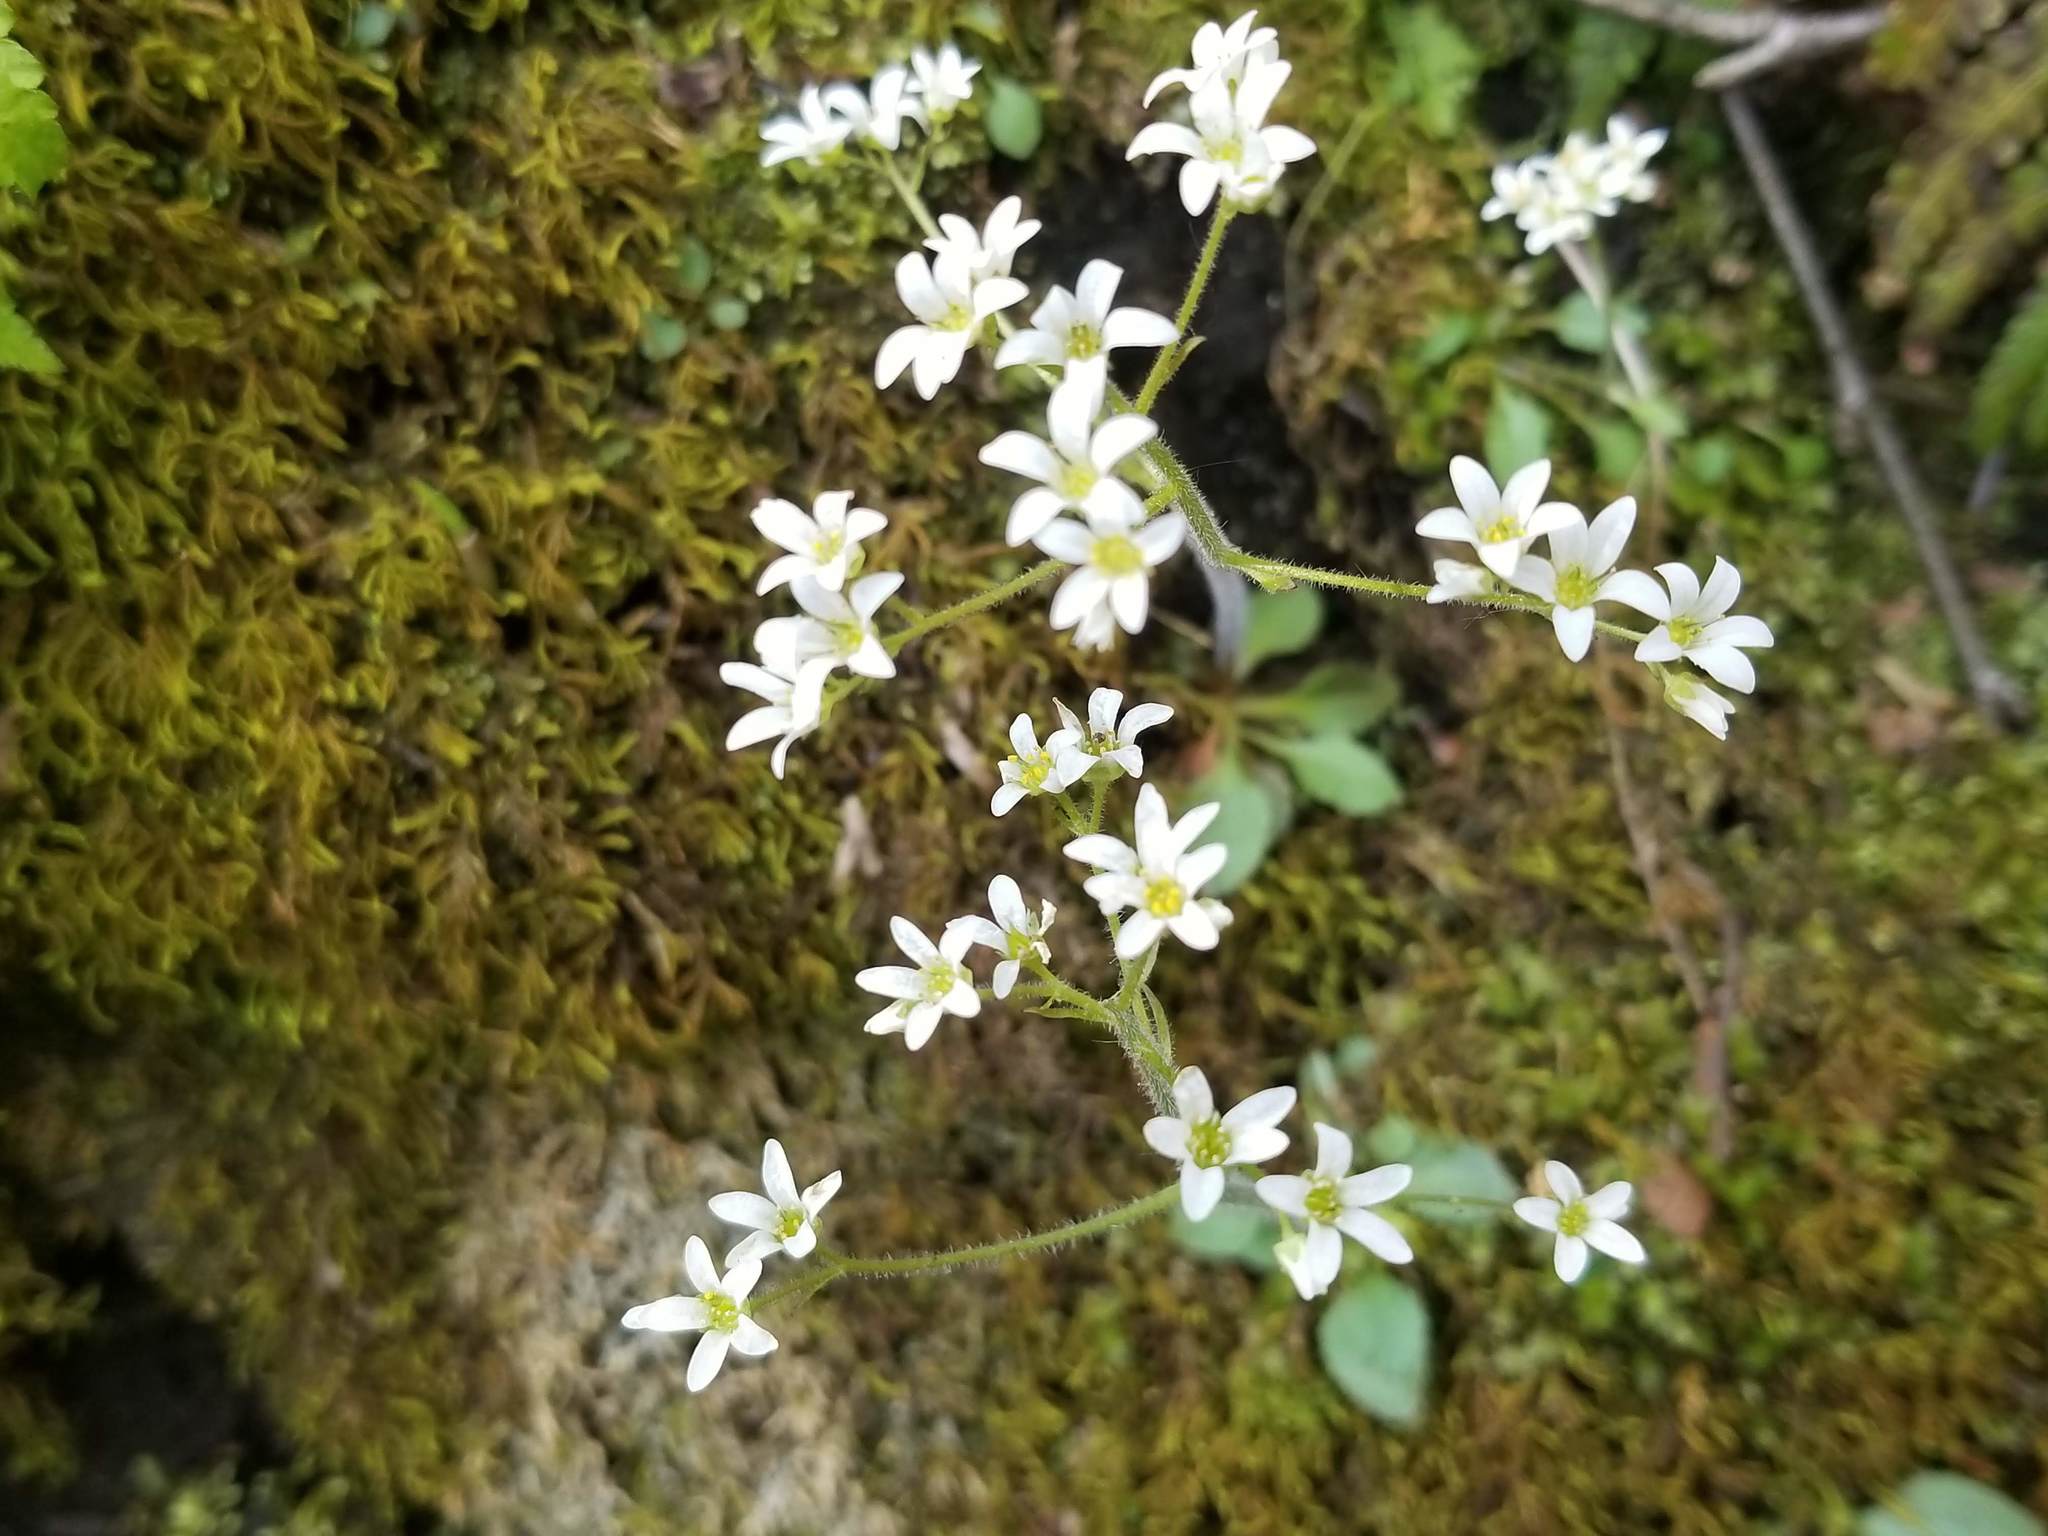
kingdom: Plantae
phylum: Tracheophyta
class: Magnoliopsida
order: Saxifragales
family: Saxifragaceae
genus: Micranthes
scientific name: Micranthes virginiensis
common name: Early saxifrage
